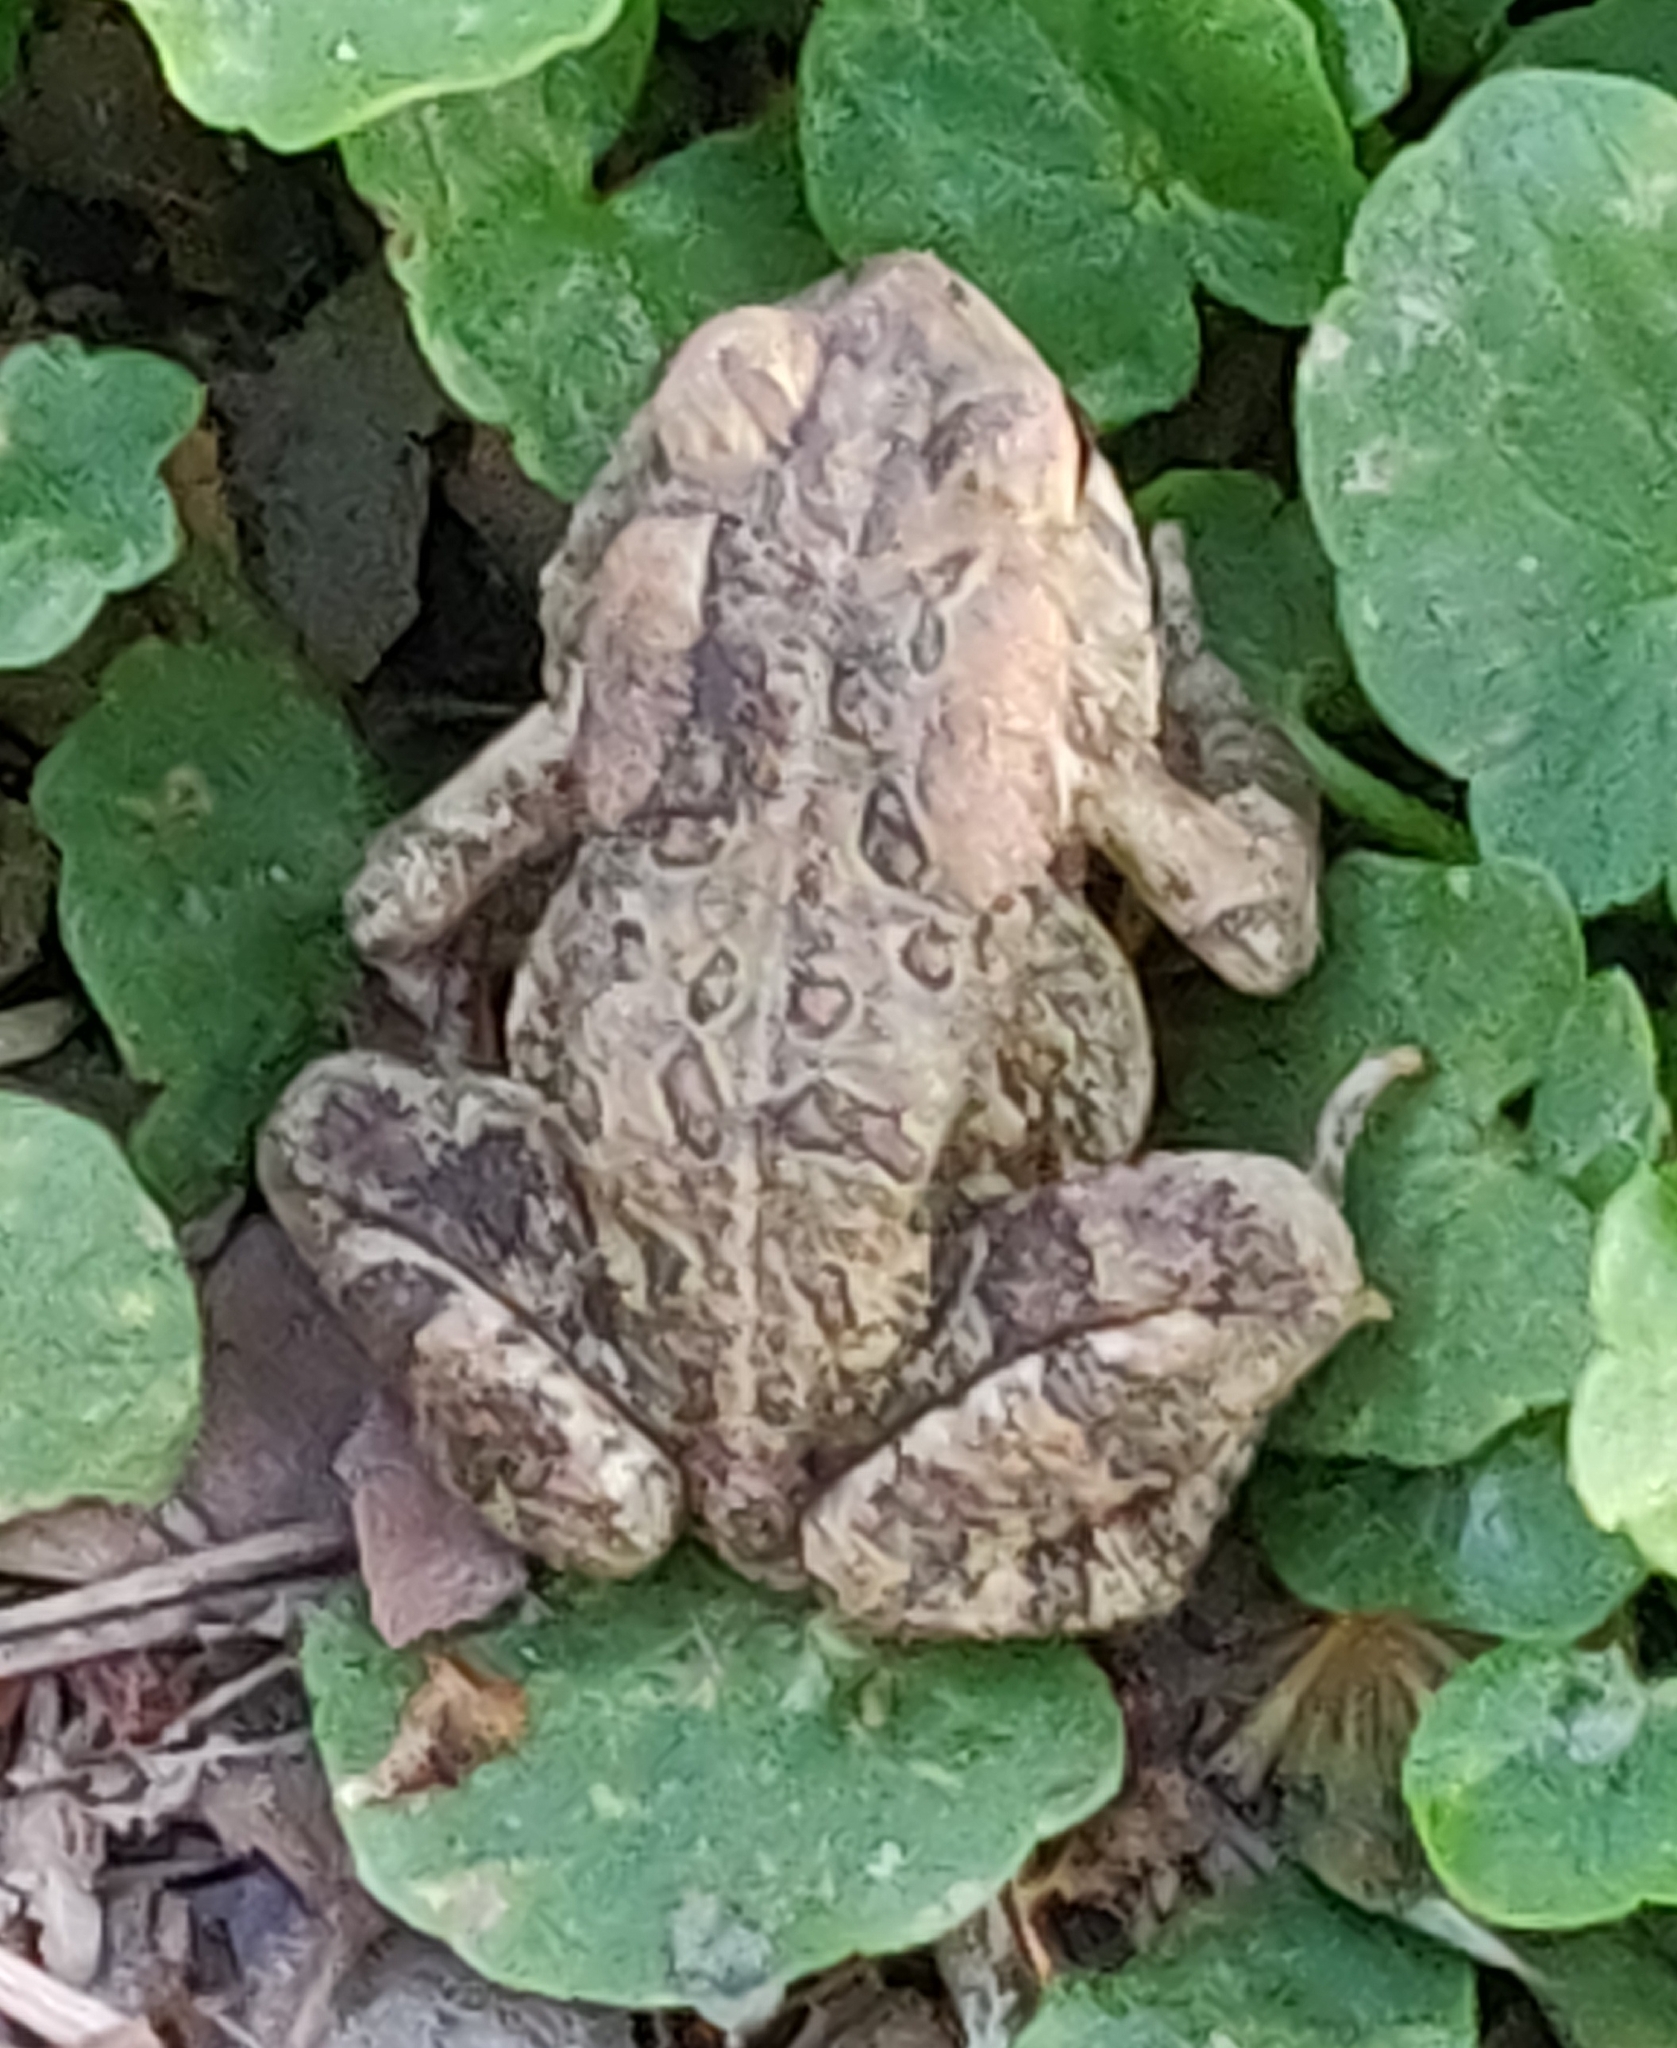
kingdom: Animalia
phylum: Chordata
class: Amphibia
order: Anura
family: Bufonidae
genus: Anaxyrus
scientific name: Anaxyrus americanus
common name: American toad
